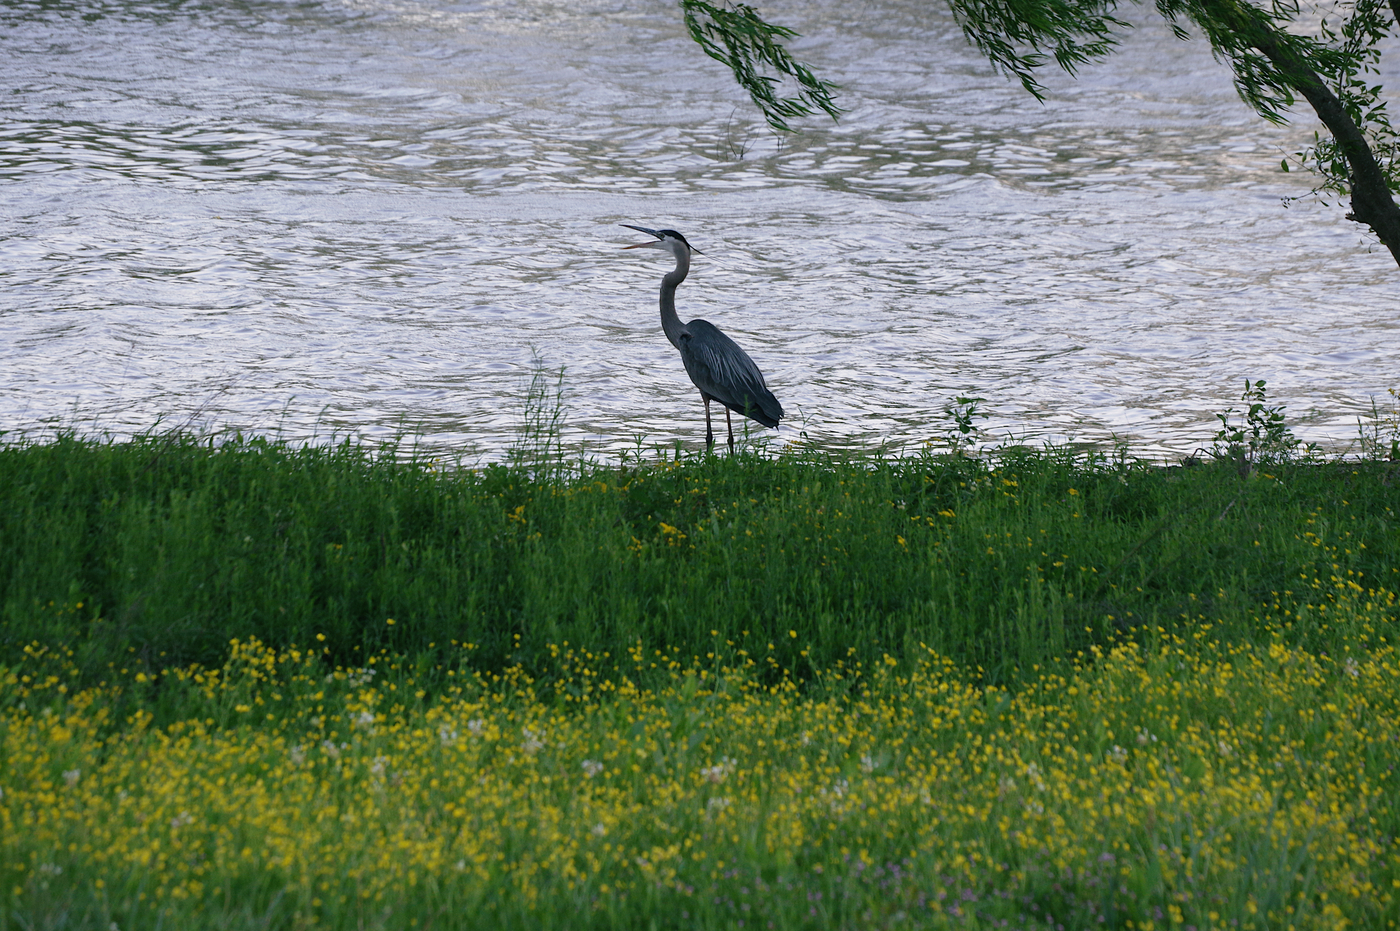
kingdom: Animalia
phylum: Chordata
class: Aves
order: Pelecaniformes
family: Ardeidae
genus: Ardea
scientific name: Ardea herodias
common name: Great blue heron
